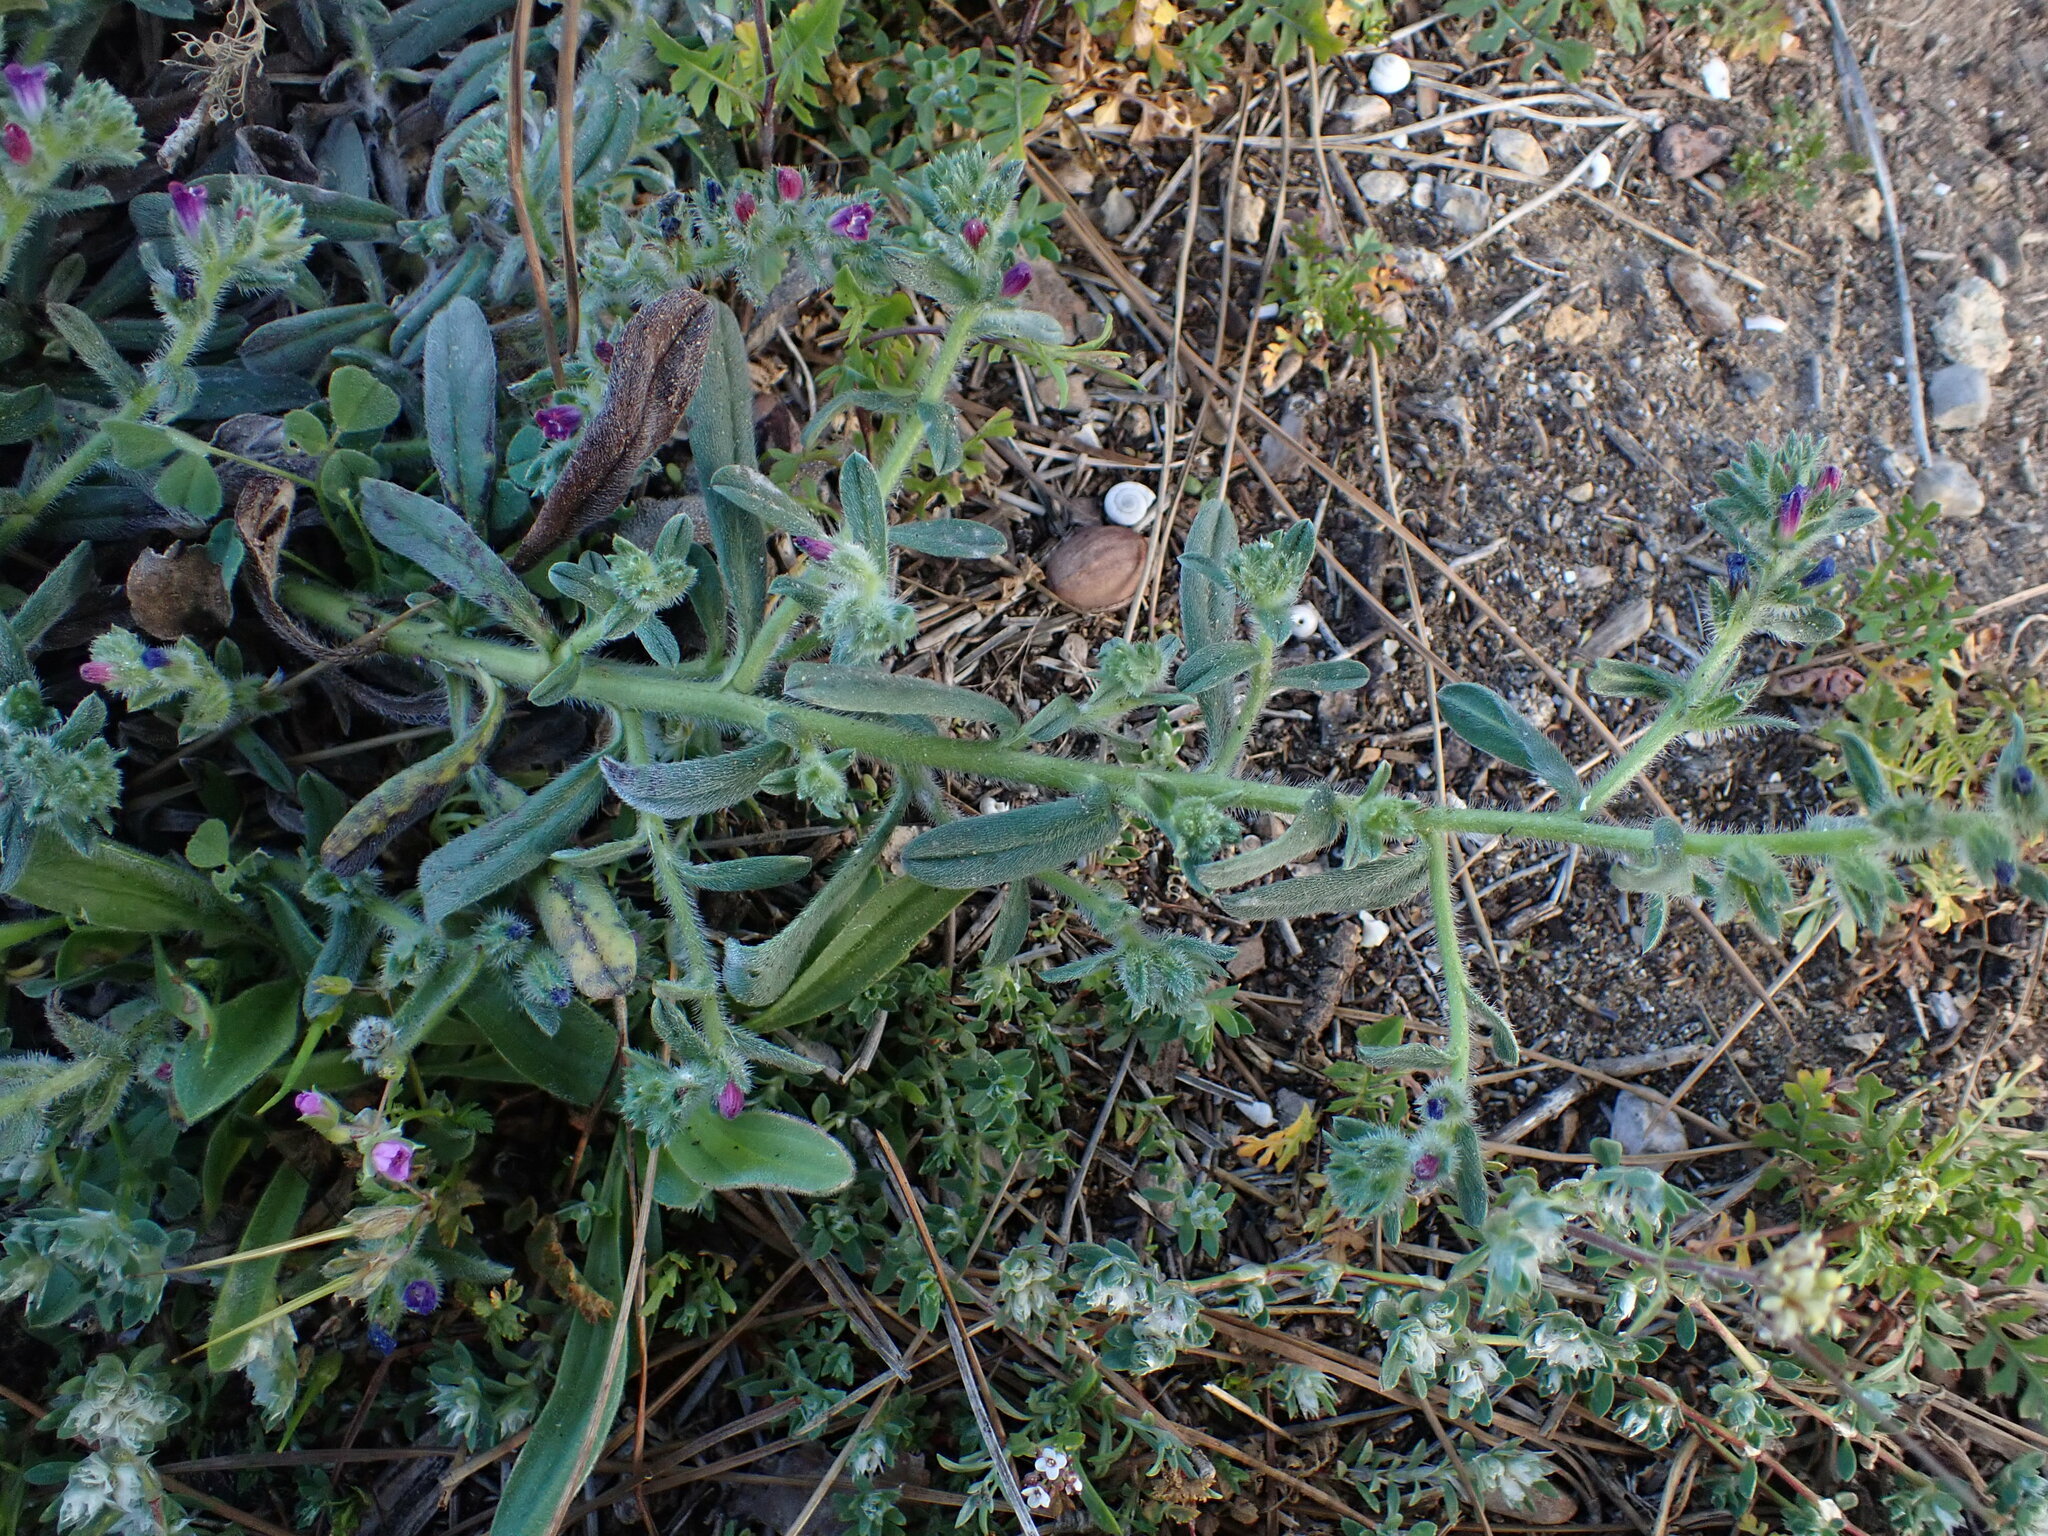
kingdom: Plantae
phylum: Tracheophyta
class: Magnoliopsida
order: Boraginales
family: Boraginaceae
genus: Echium
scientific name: Echium arenarium
